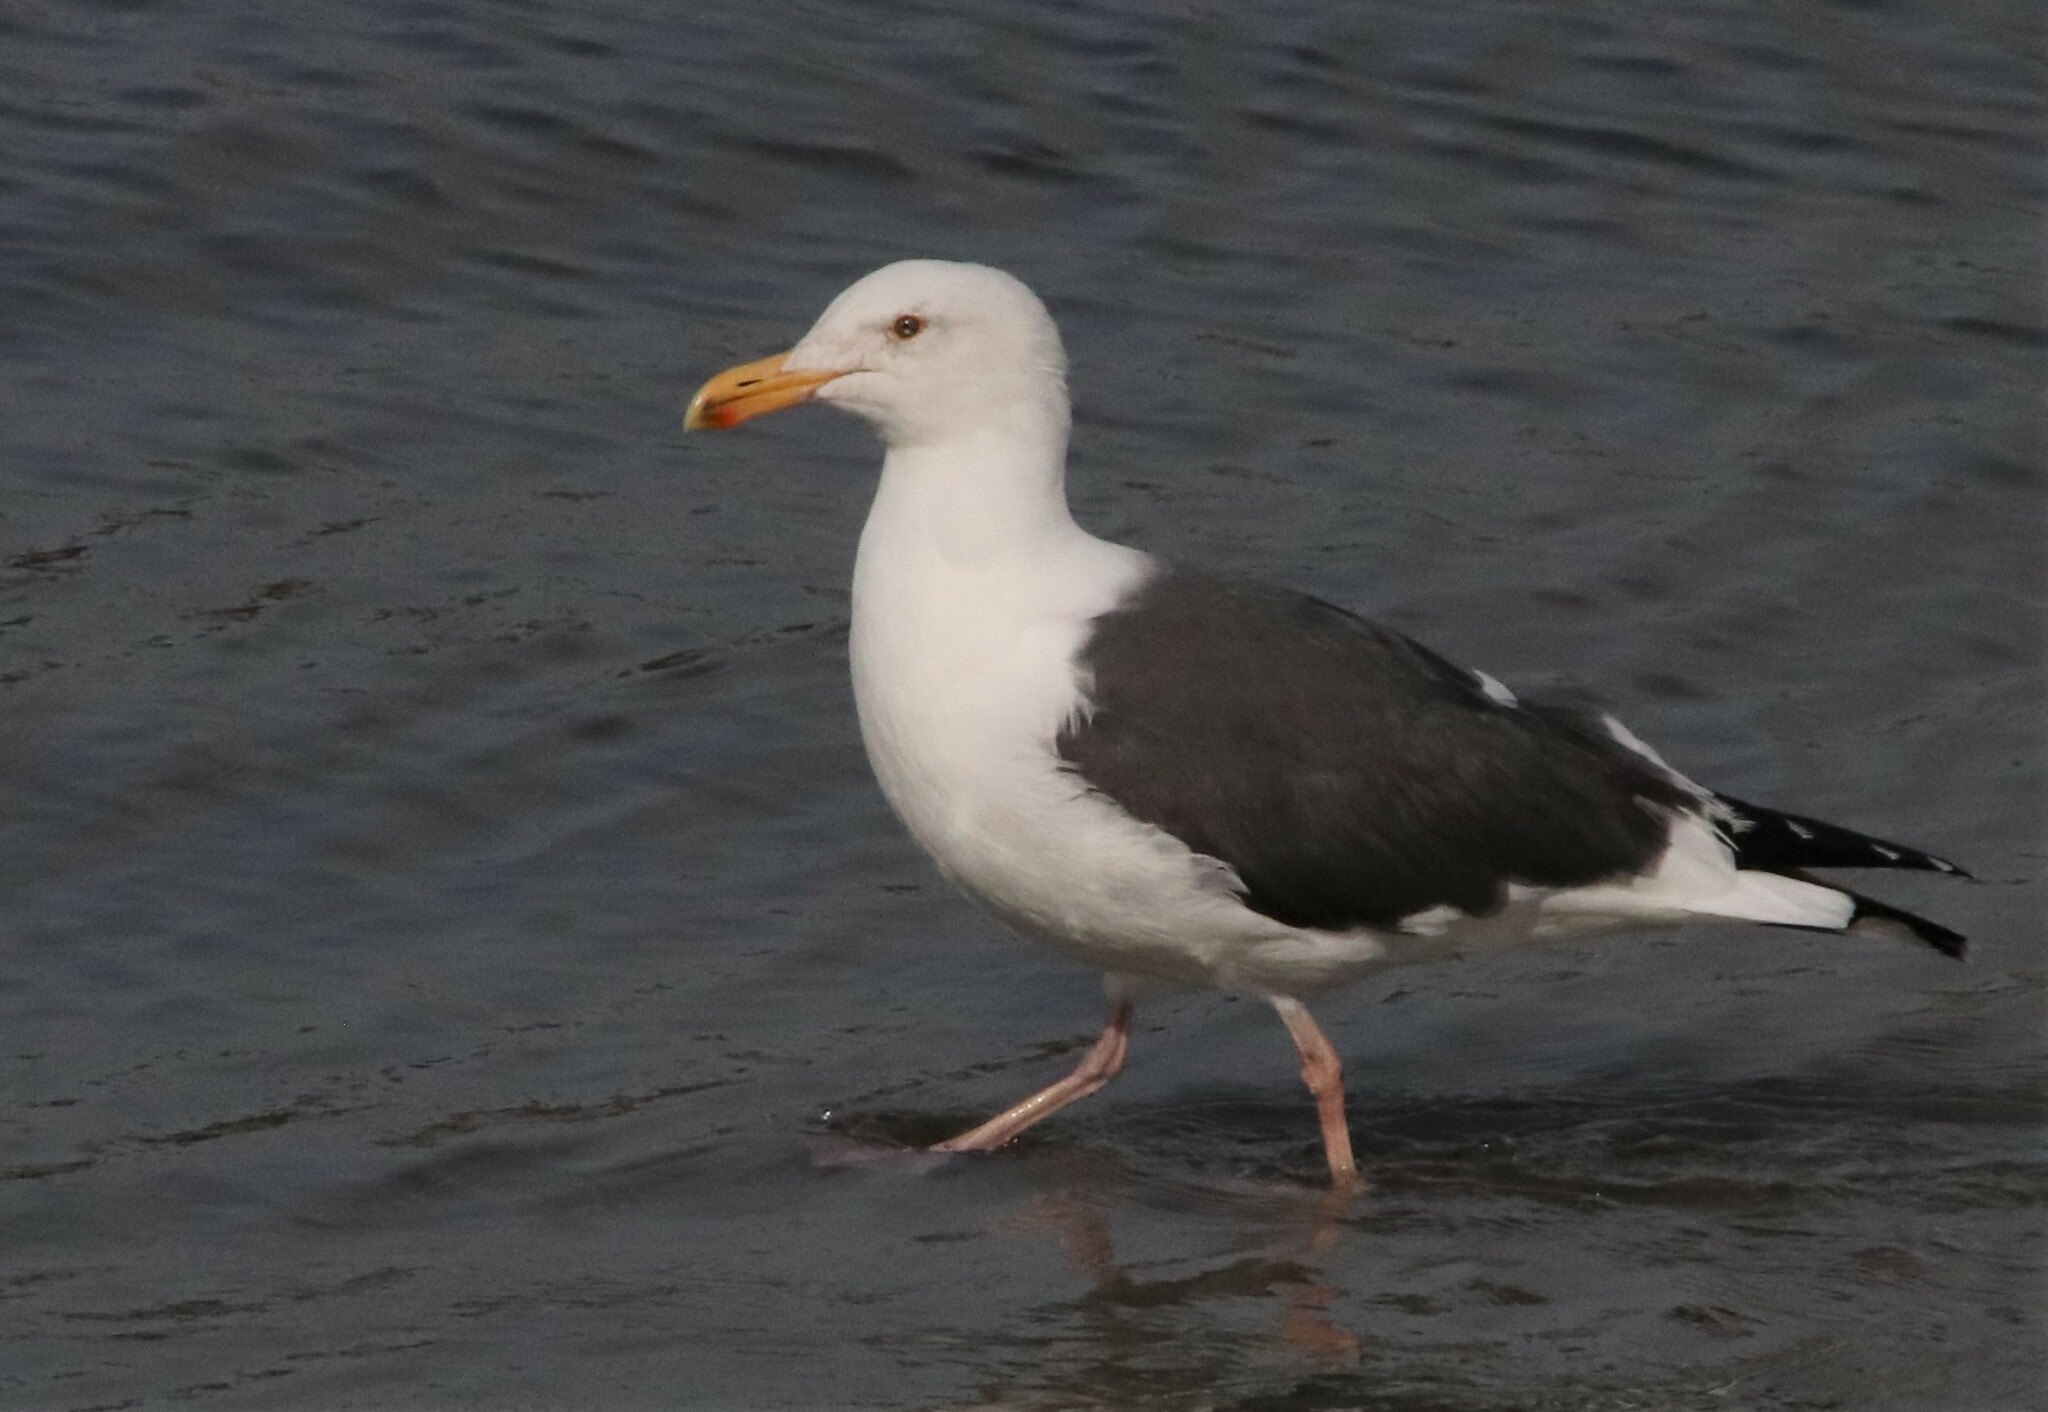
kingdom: Animalia
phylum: Chordata
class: Aves
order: Charadriiformes
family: Laridae
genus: Larus
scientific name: Larus occidentalis
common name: Western gull
